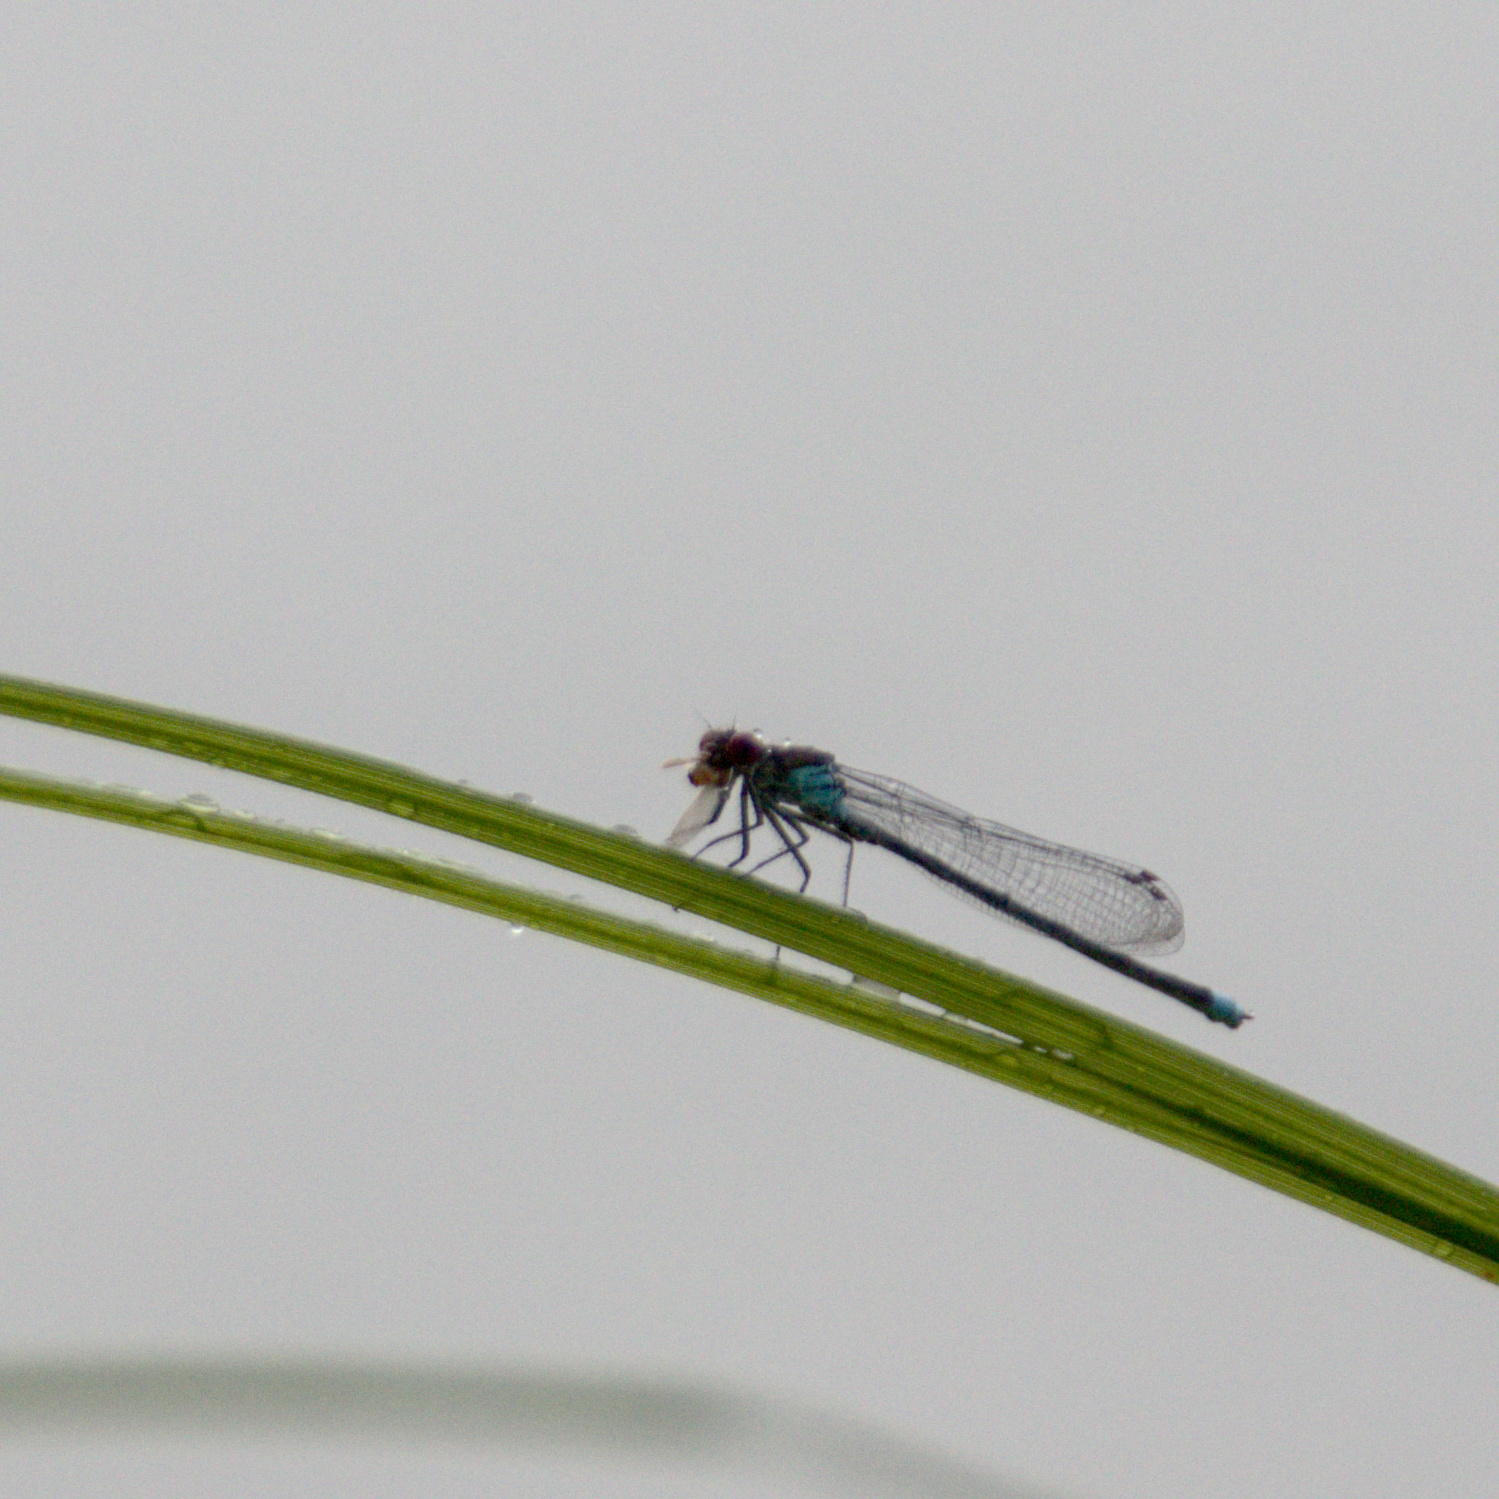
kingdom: Animalia
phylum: Arthropoda
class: Insecta
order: Odonata
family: Coenagrionidae
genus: Erythromma
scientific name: Erythromma najas
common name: Red-eyed damselfly
